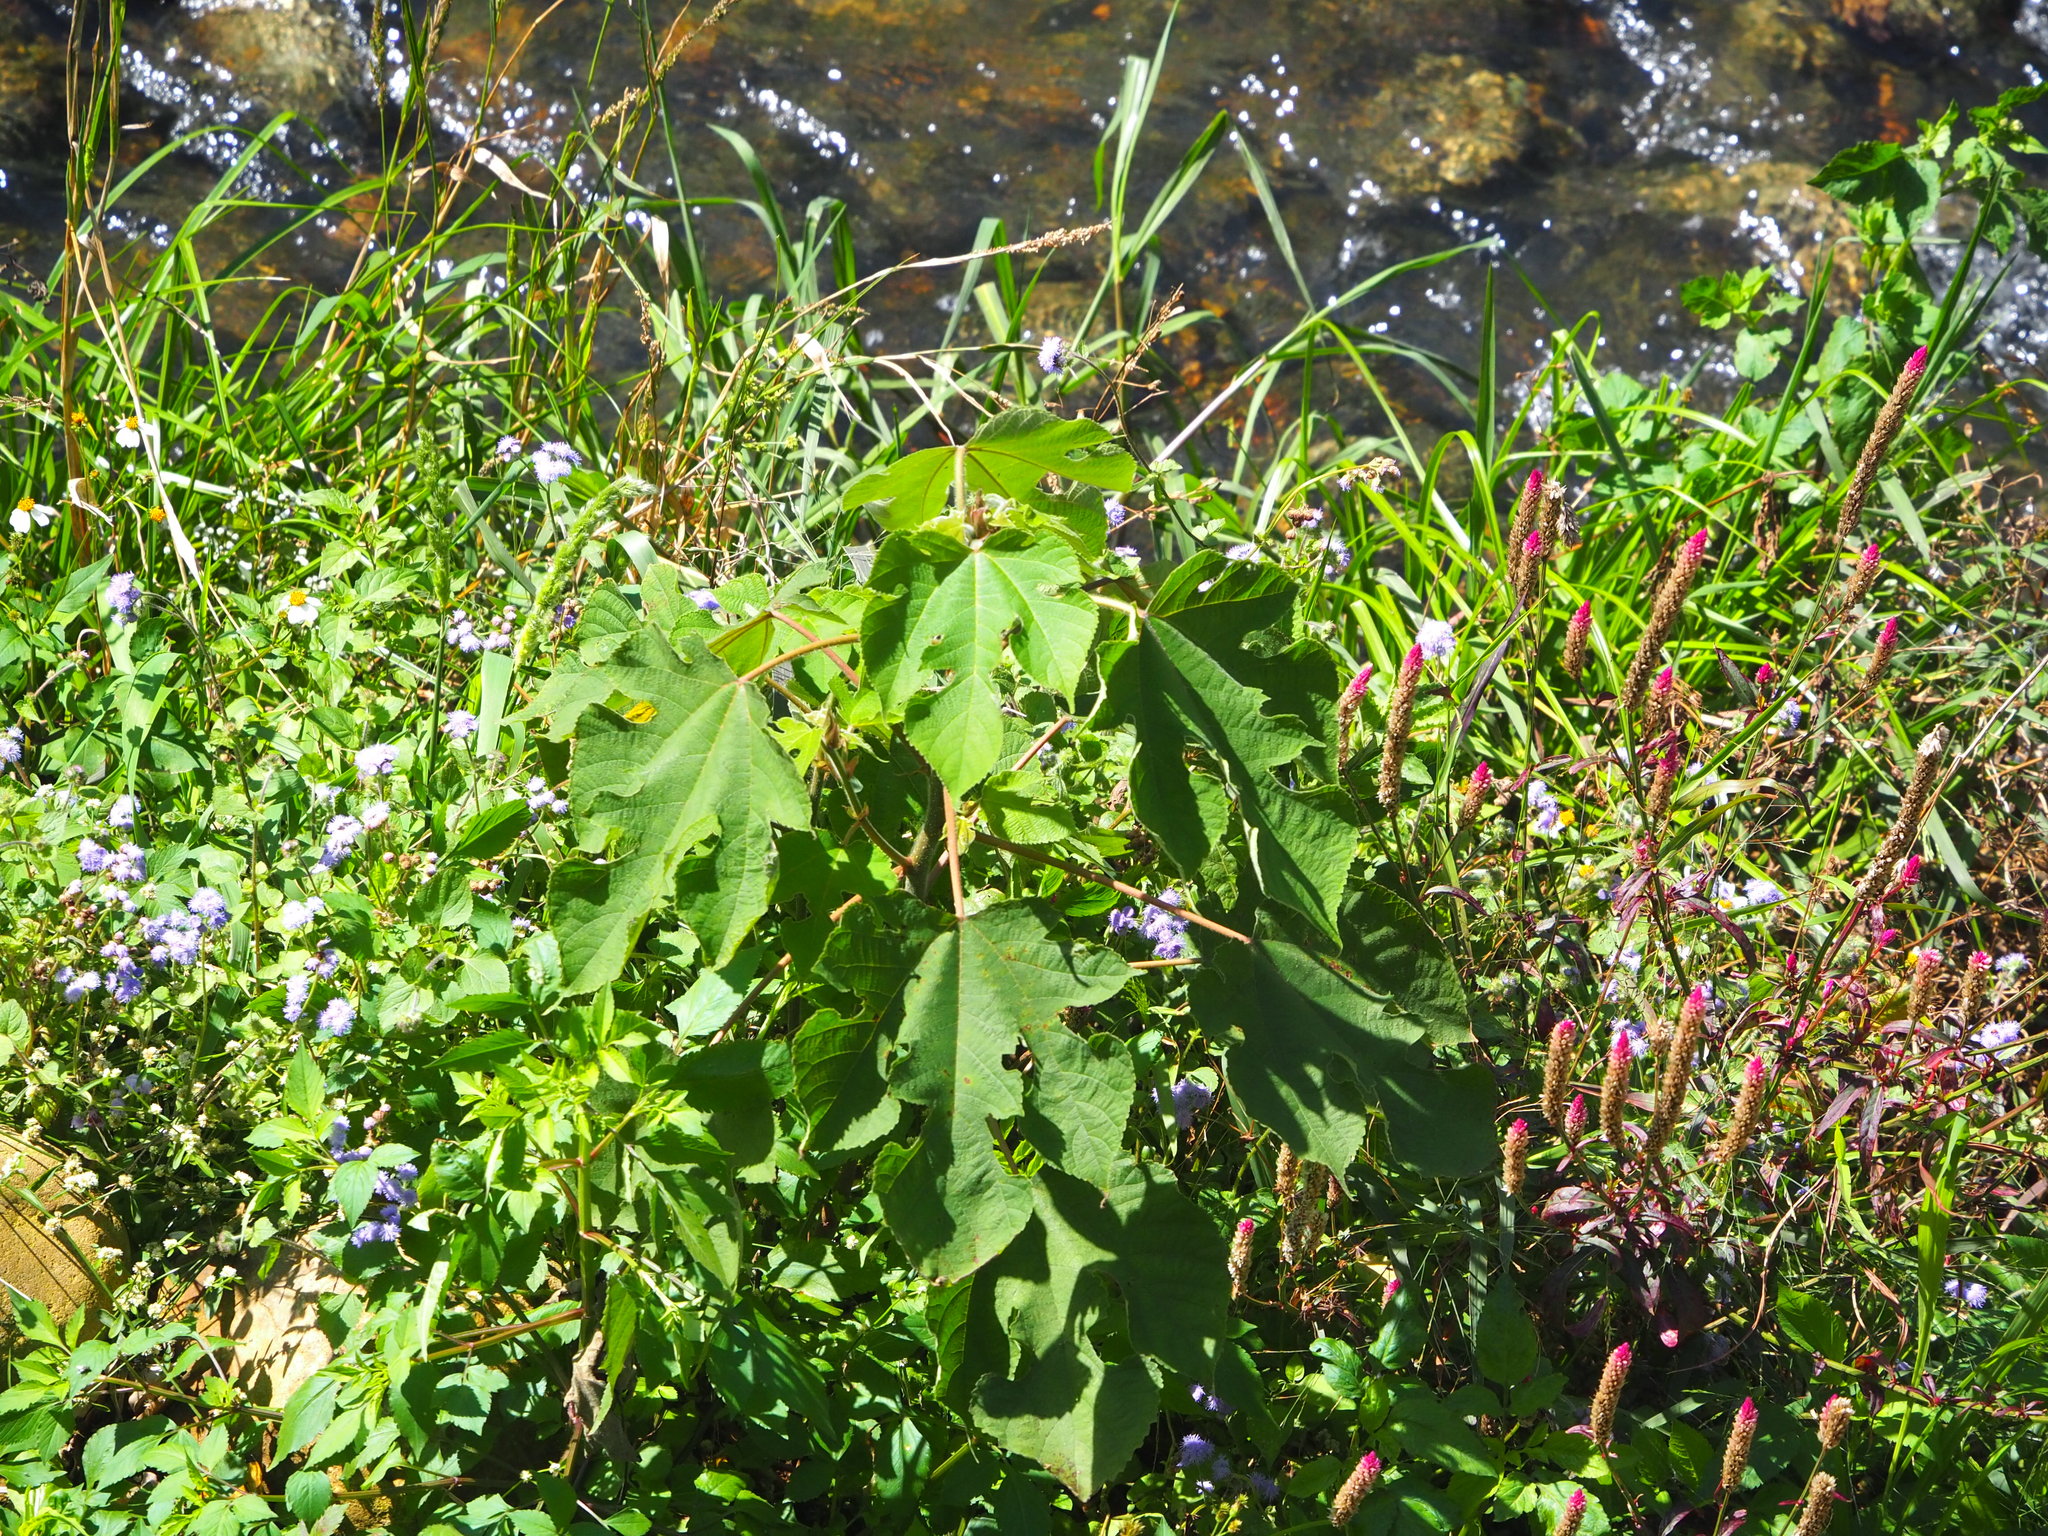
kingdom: Plantae
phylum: Tracheophyta
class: Magnoliopsida
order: Rosales
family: Moraceae
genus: Broussonetia
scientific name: Broussonetia papyrifera
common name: Paper mulberry
